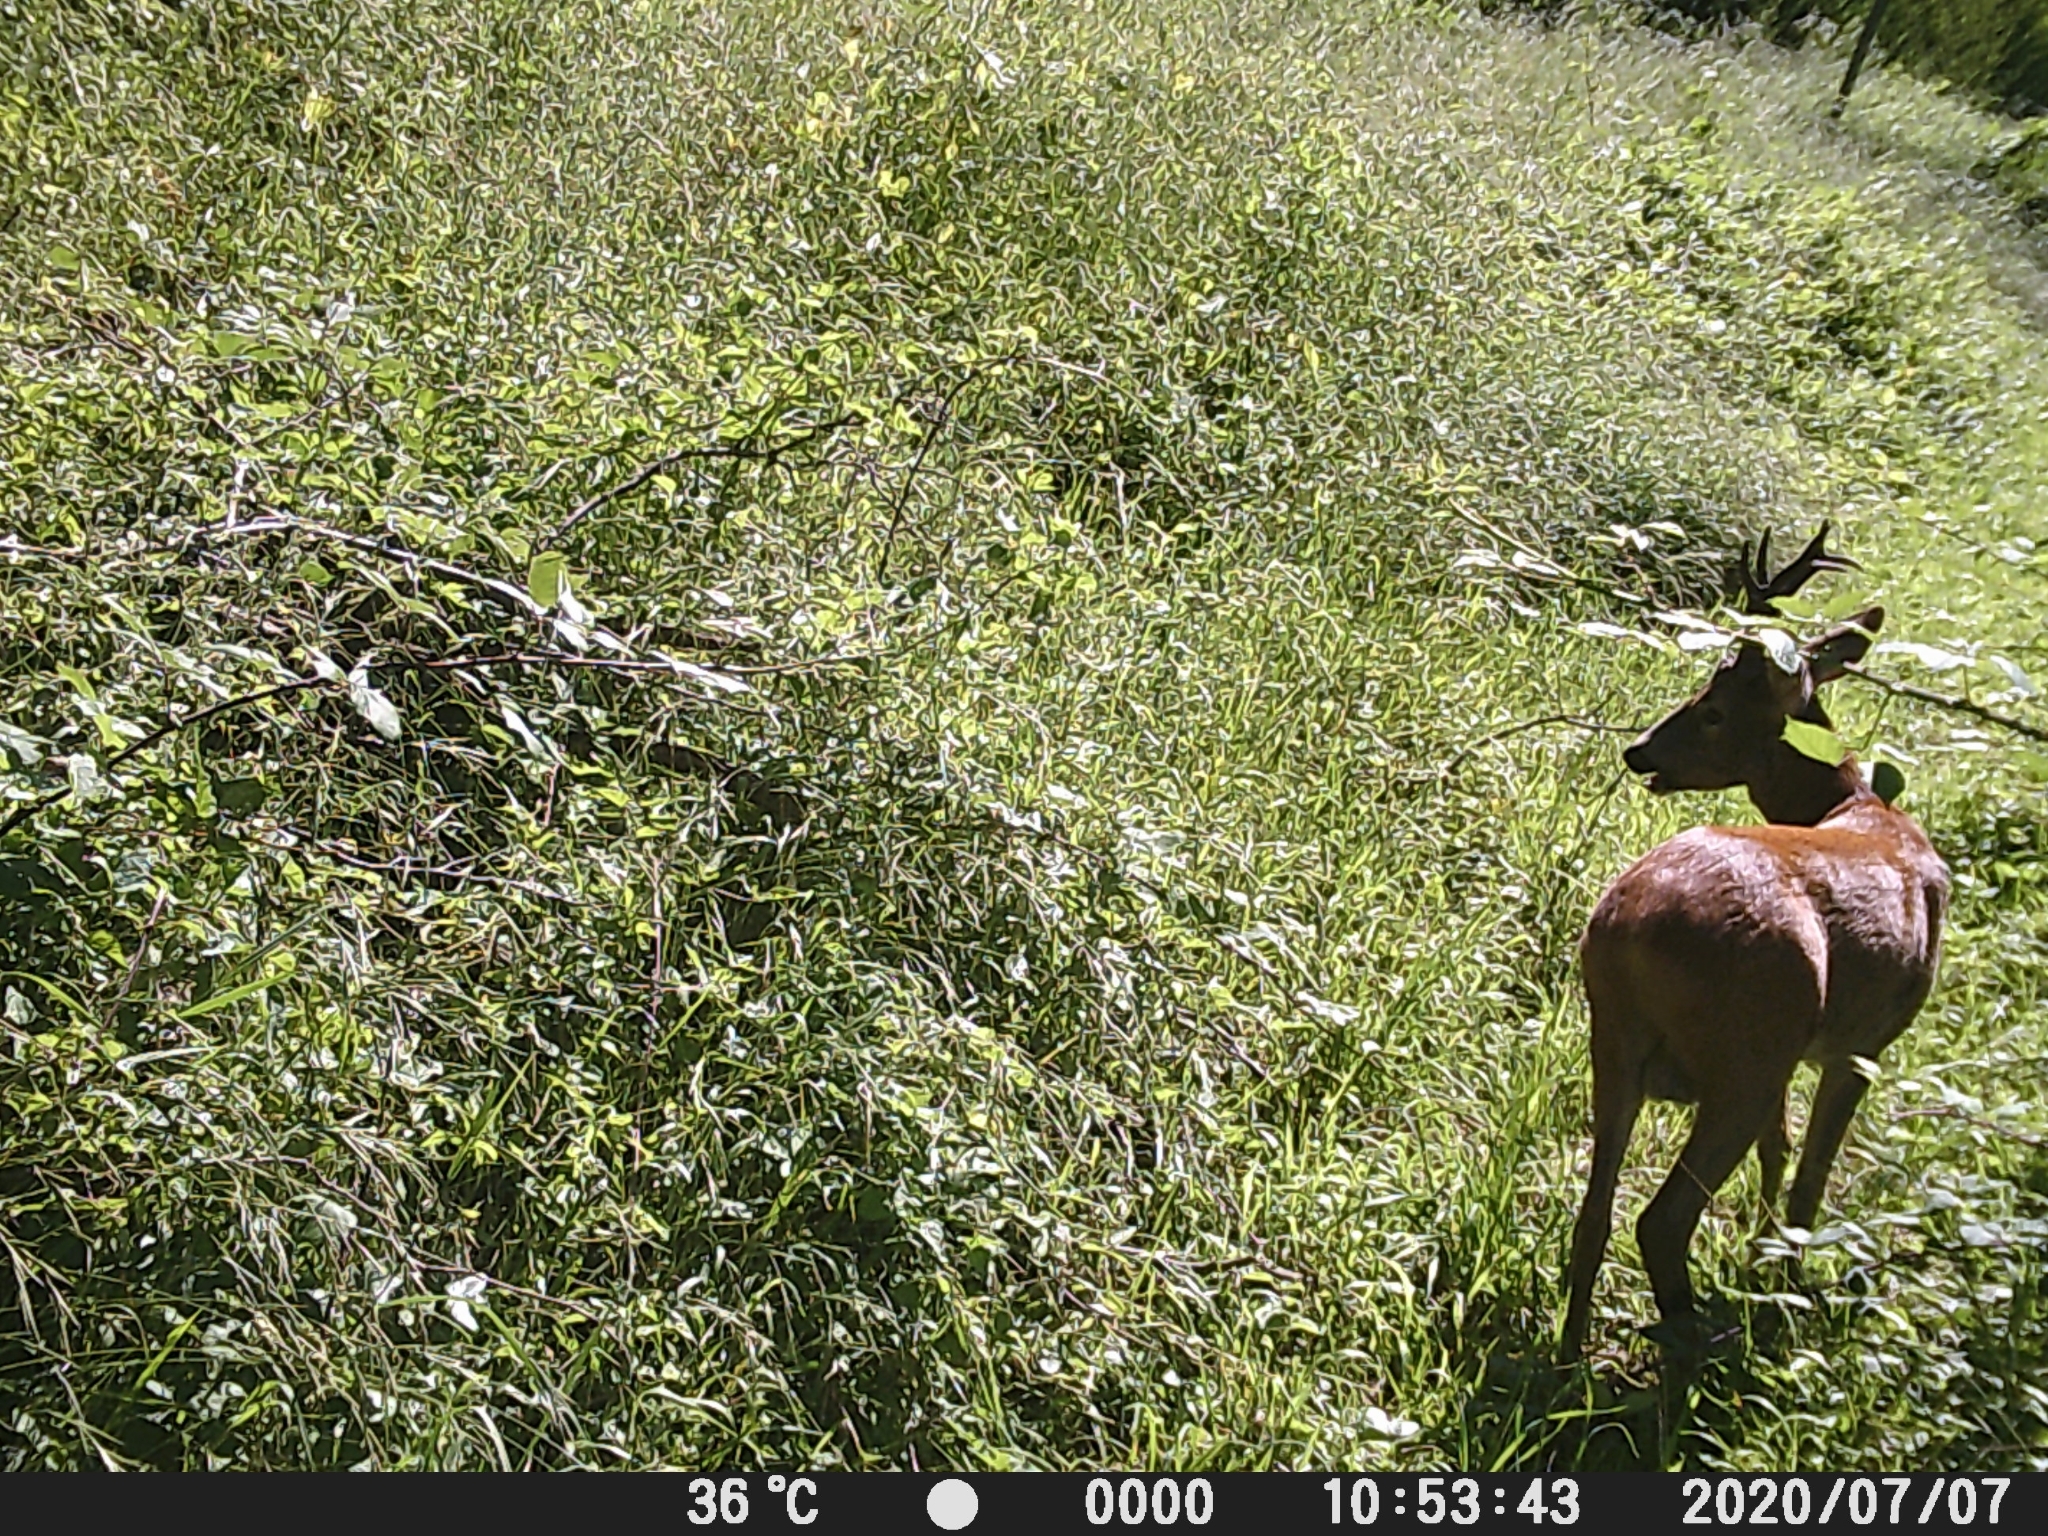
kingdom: Animalia
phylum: Chordata
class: Mammalia
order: Artiodactyla
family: Cervidae
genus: Capreolus
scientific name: Capreolus capreolus
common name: Western roe deer
